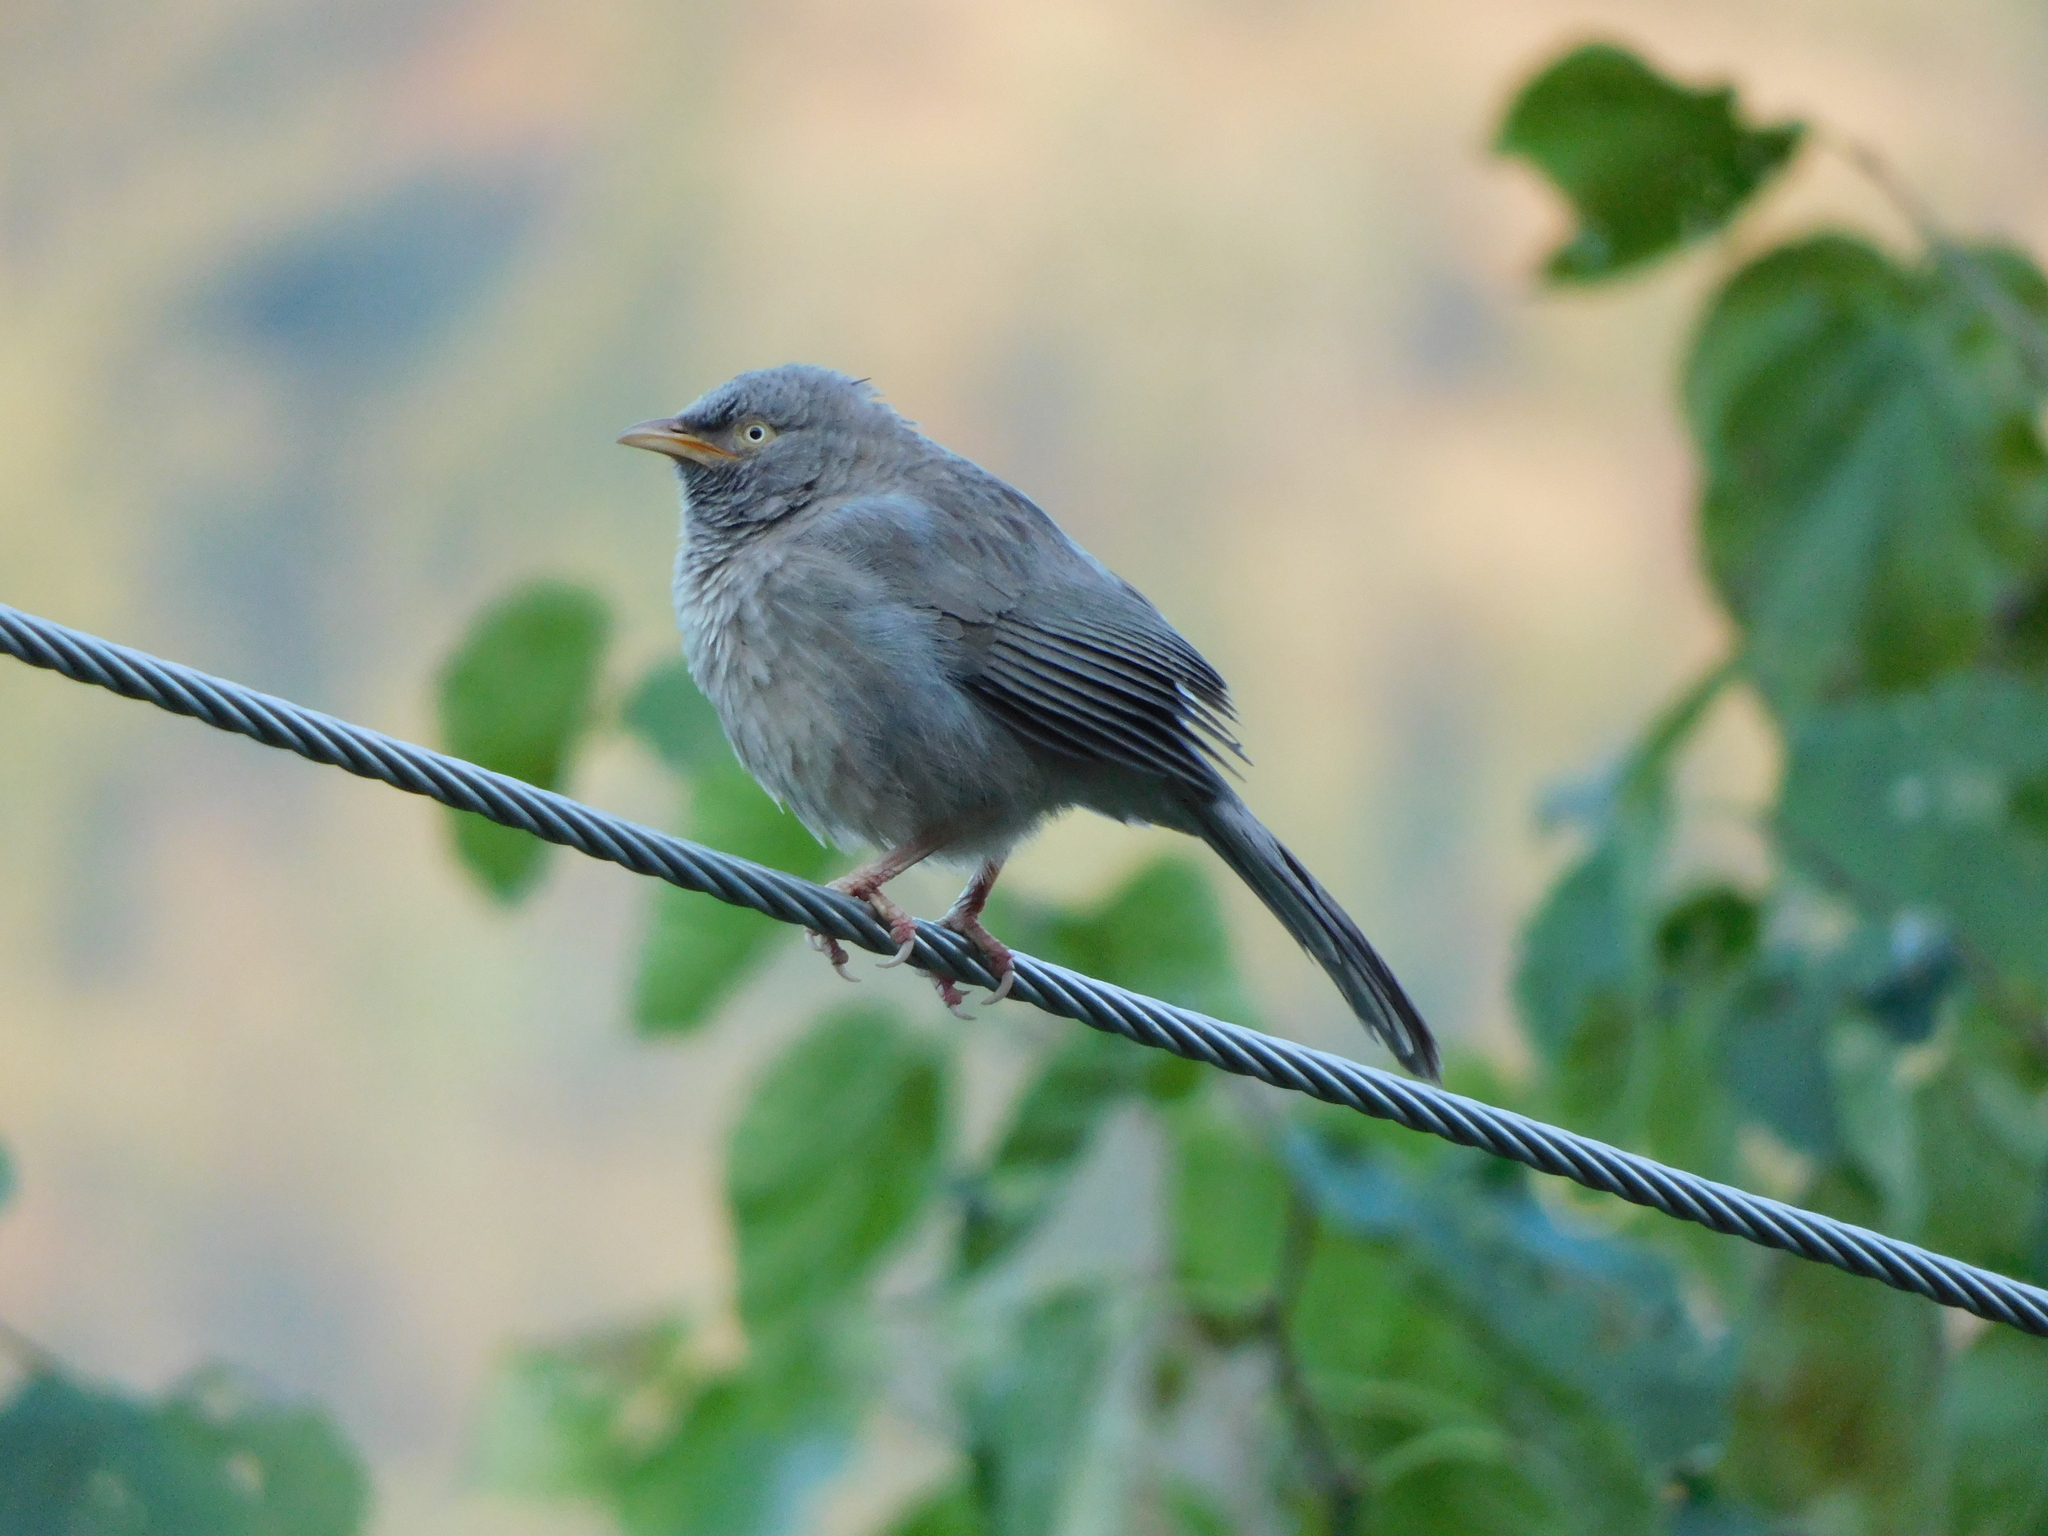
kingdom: Animalia
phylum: Chordata
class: Aves
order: Passeriformes
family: Leiothrichidae
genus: Turdoides
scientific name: Turdoides striata
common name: Jungle babbler
